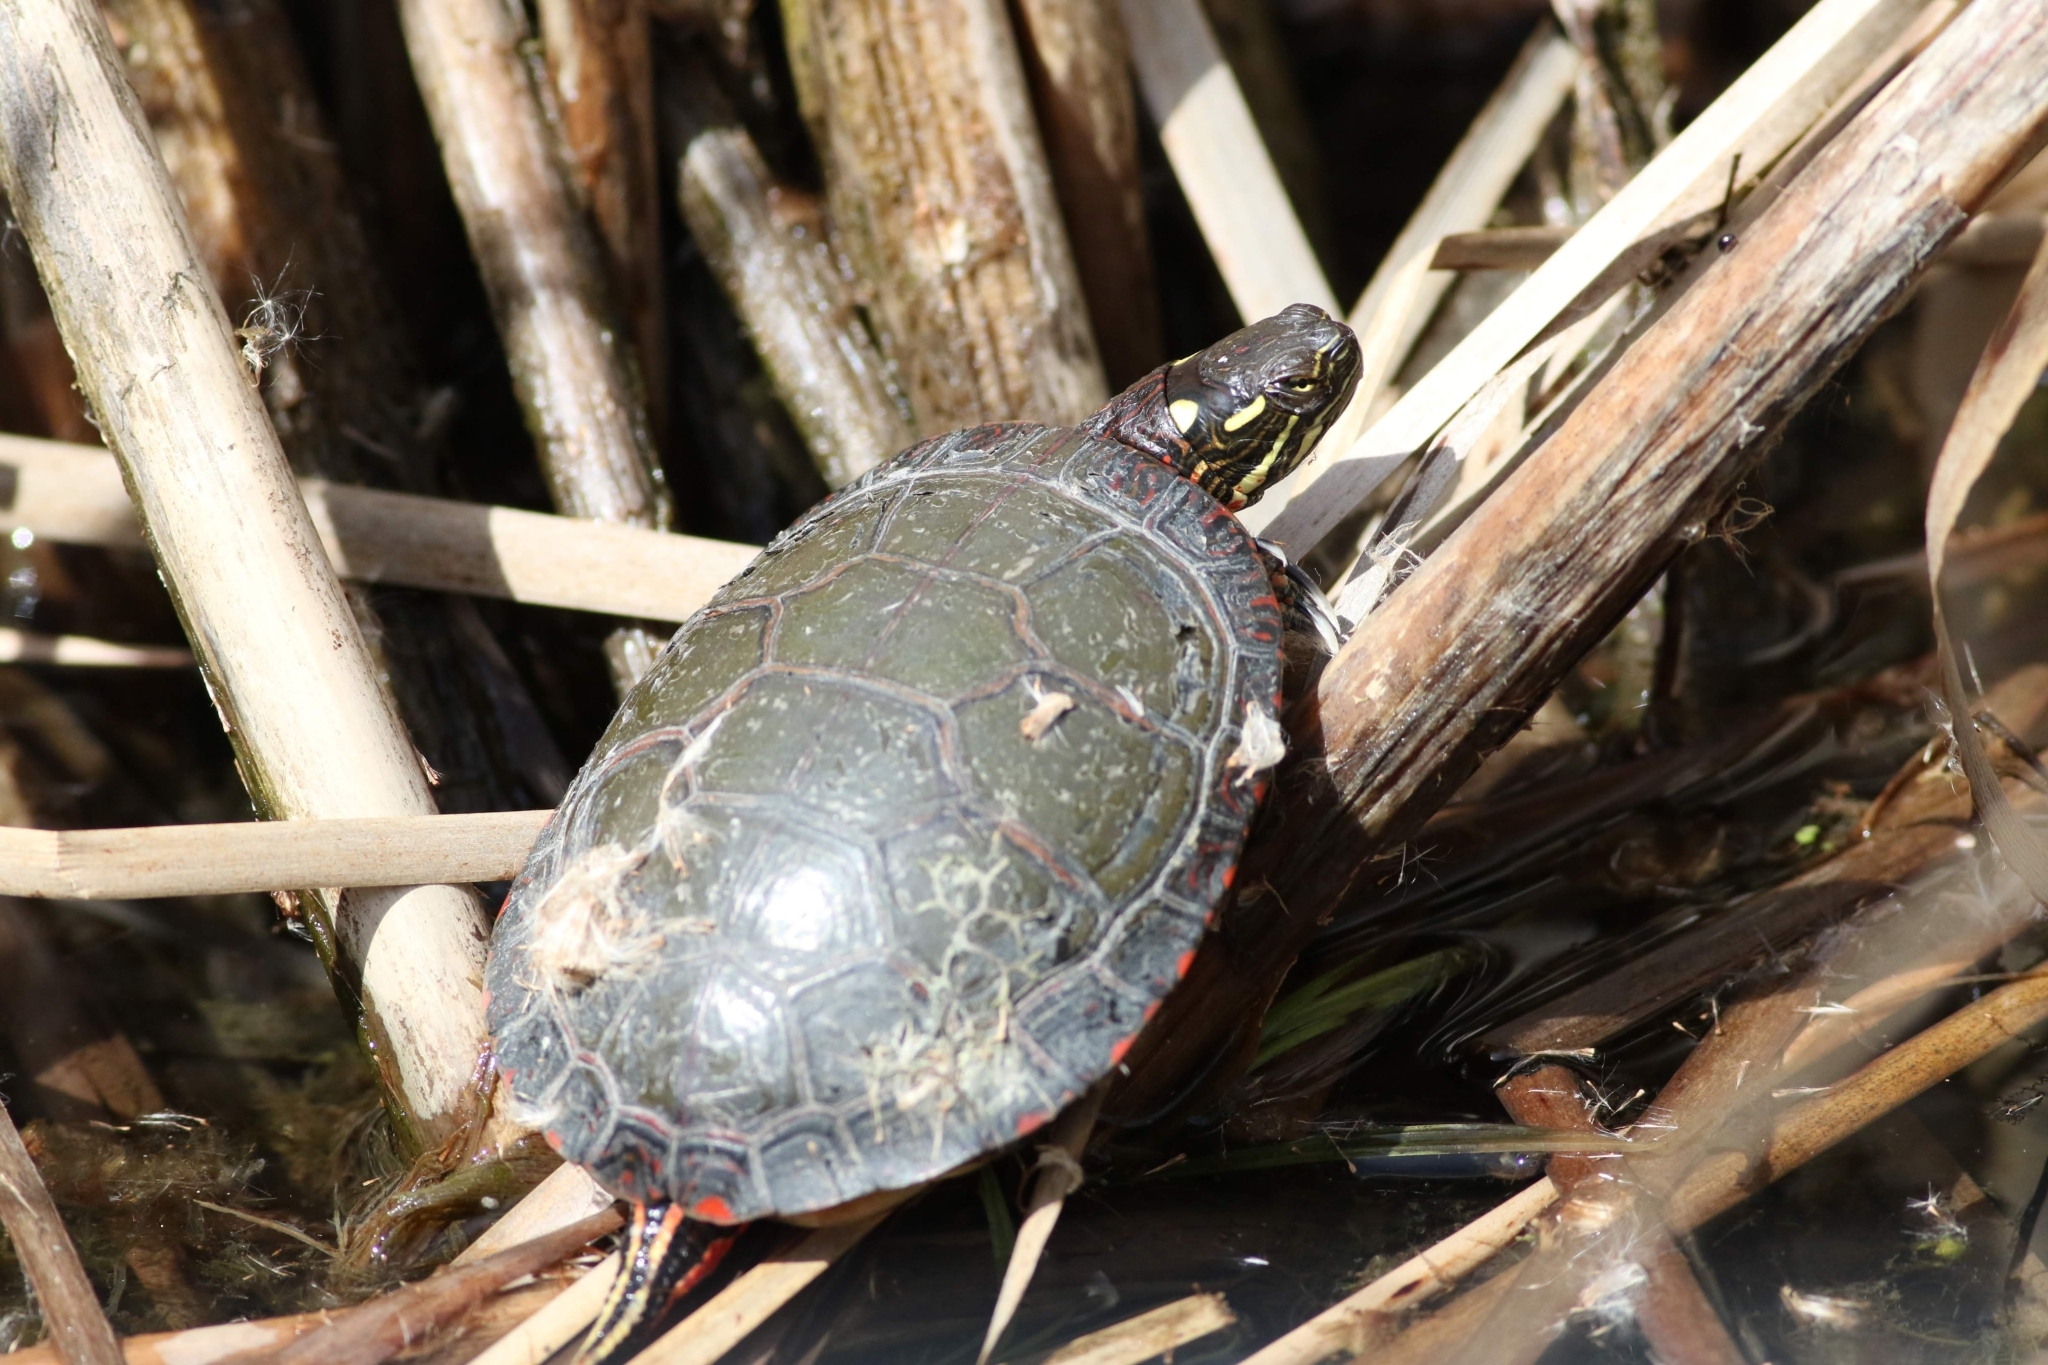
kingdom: Animalia
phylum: Chordata
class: Testudines
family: Emydidae
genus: Chrysemys
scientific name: Chrysemys picta
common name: Painted turtle
